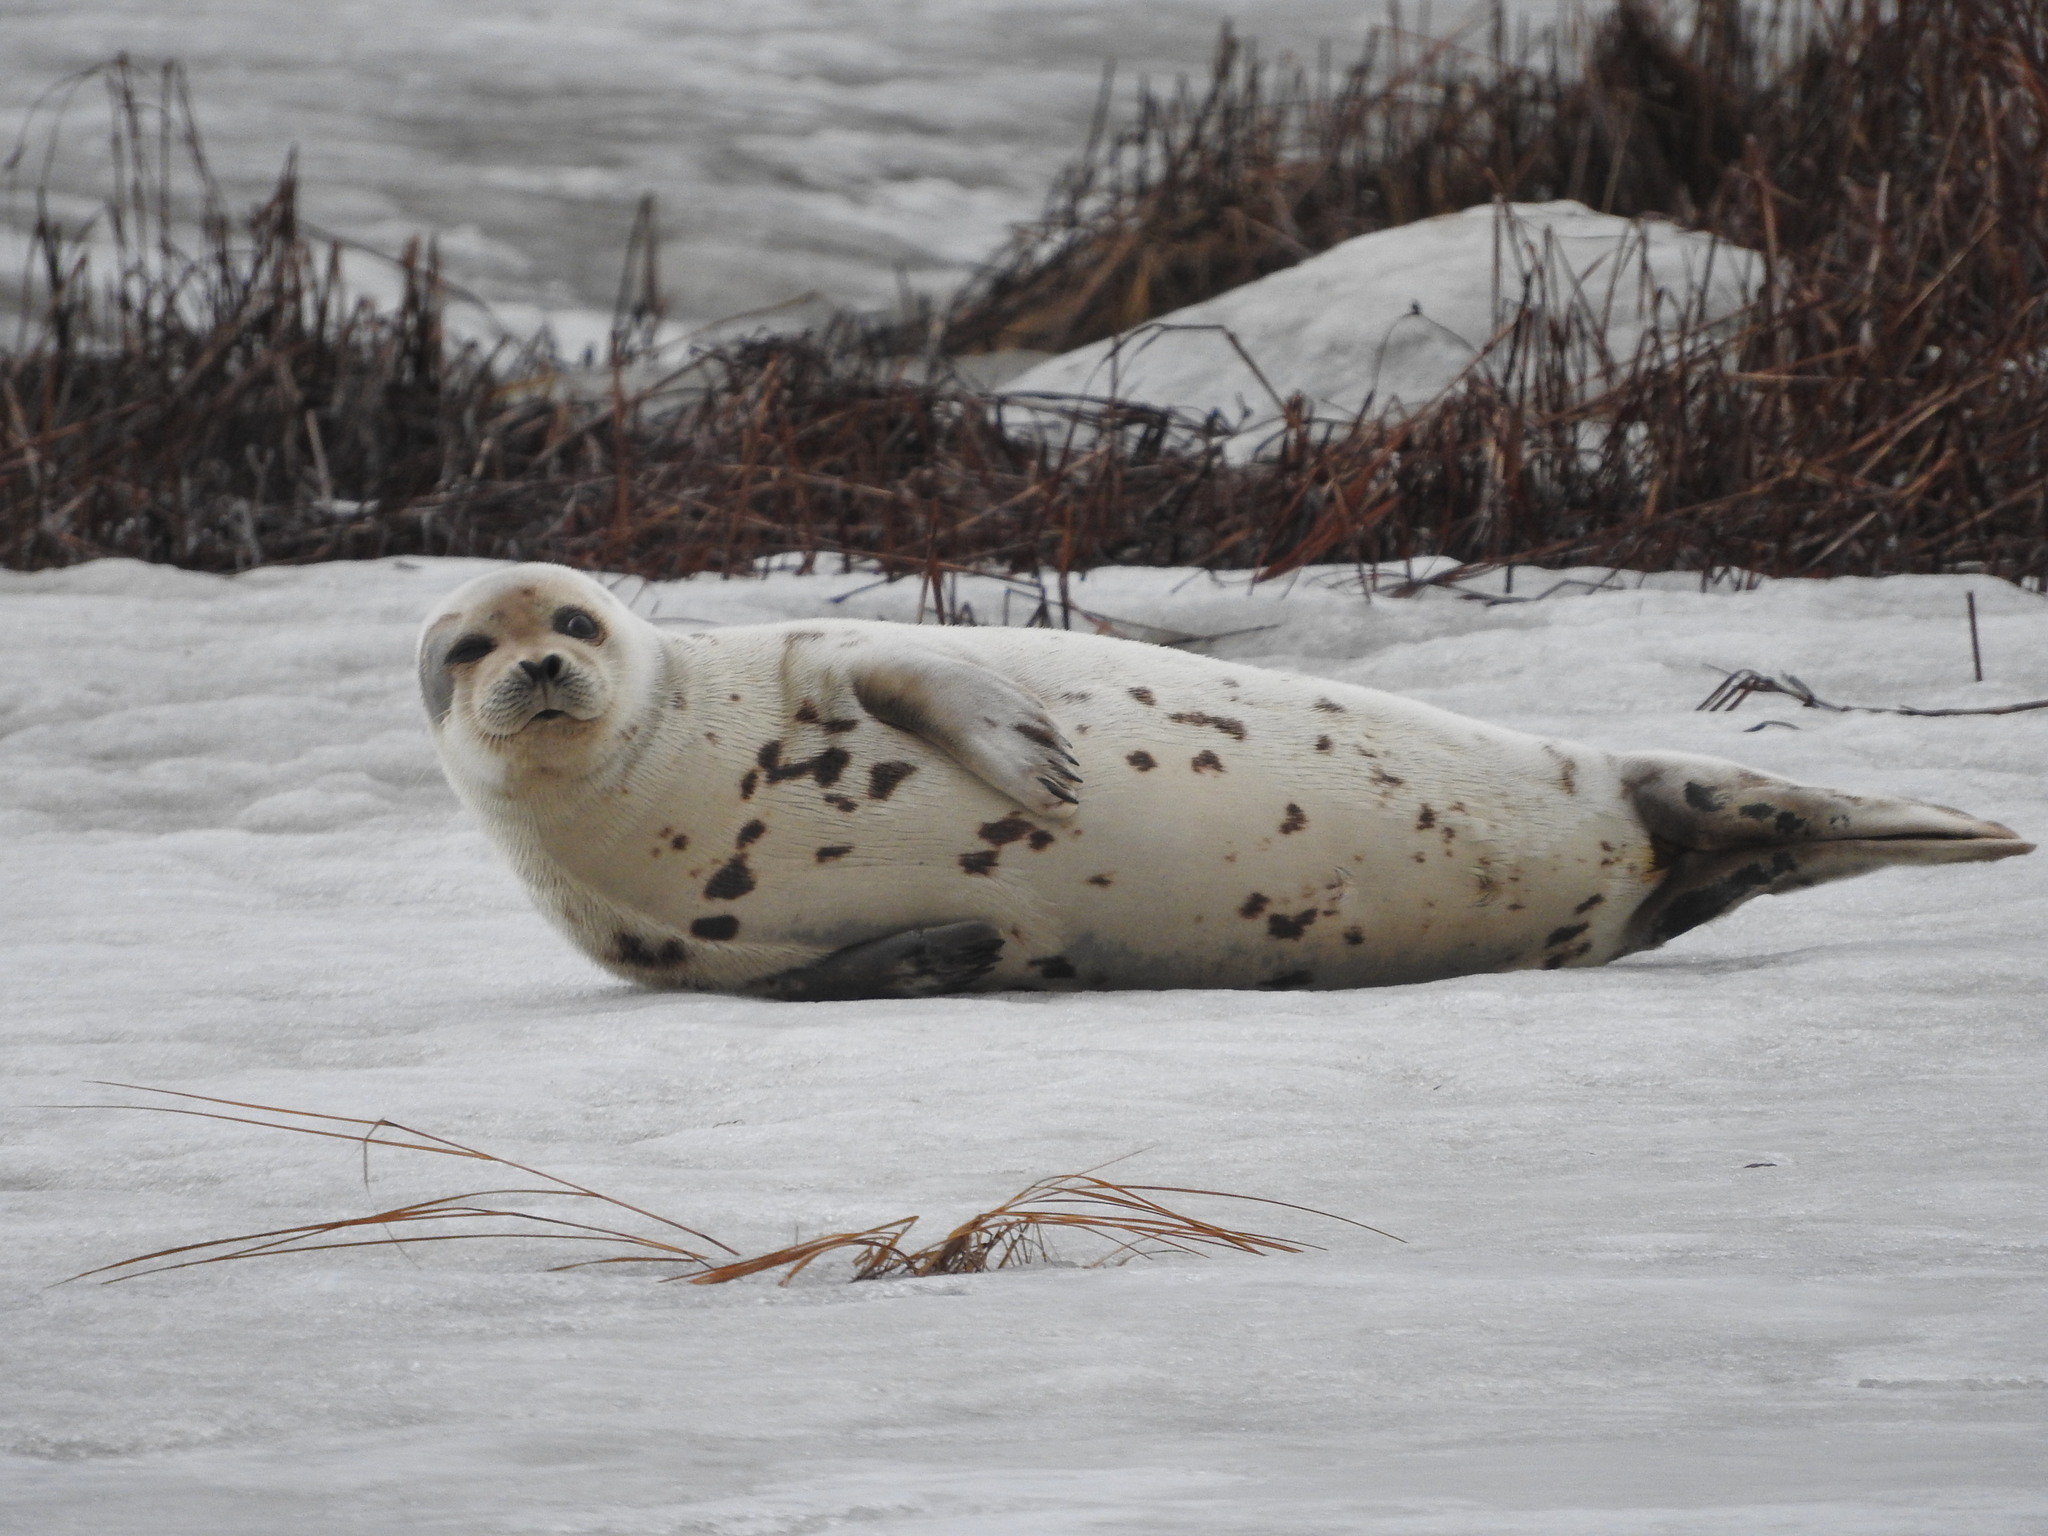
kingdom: Animalia
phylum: Chordata
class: Mammalia
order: Carnivora
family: Phocidae
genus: Pagophilus
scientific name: Pagophilus groenlandicus
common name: Harp seal
